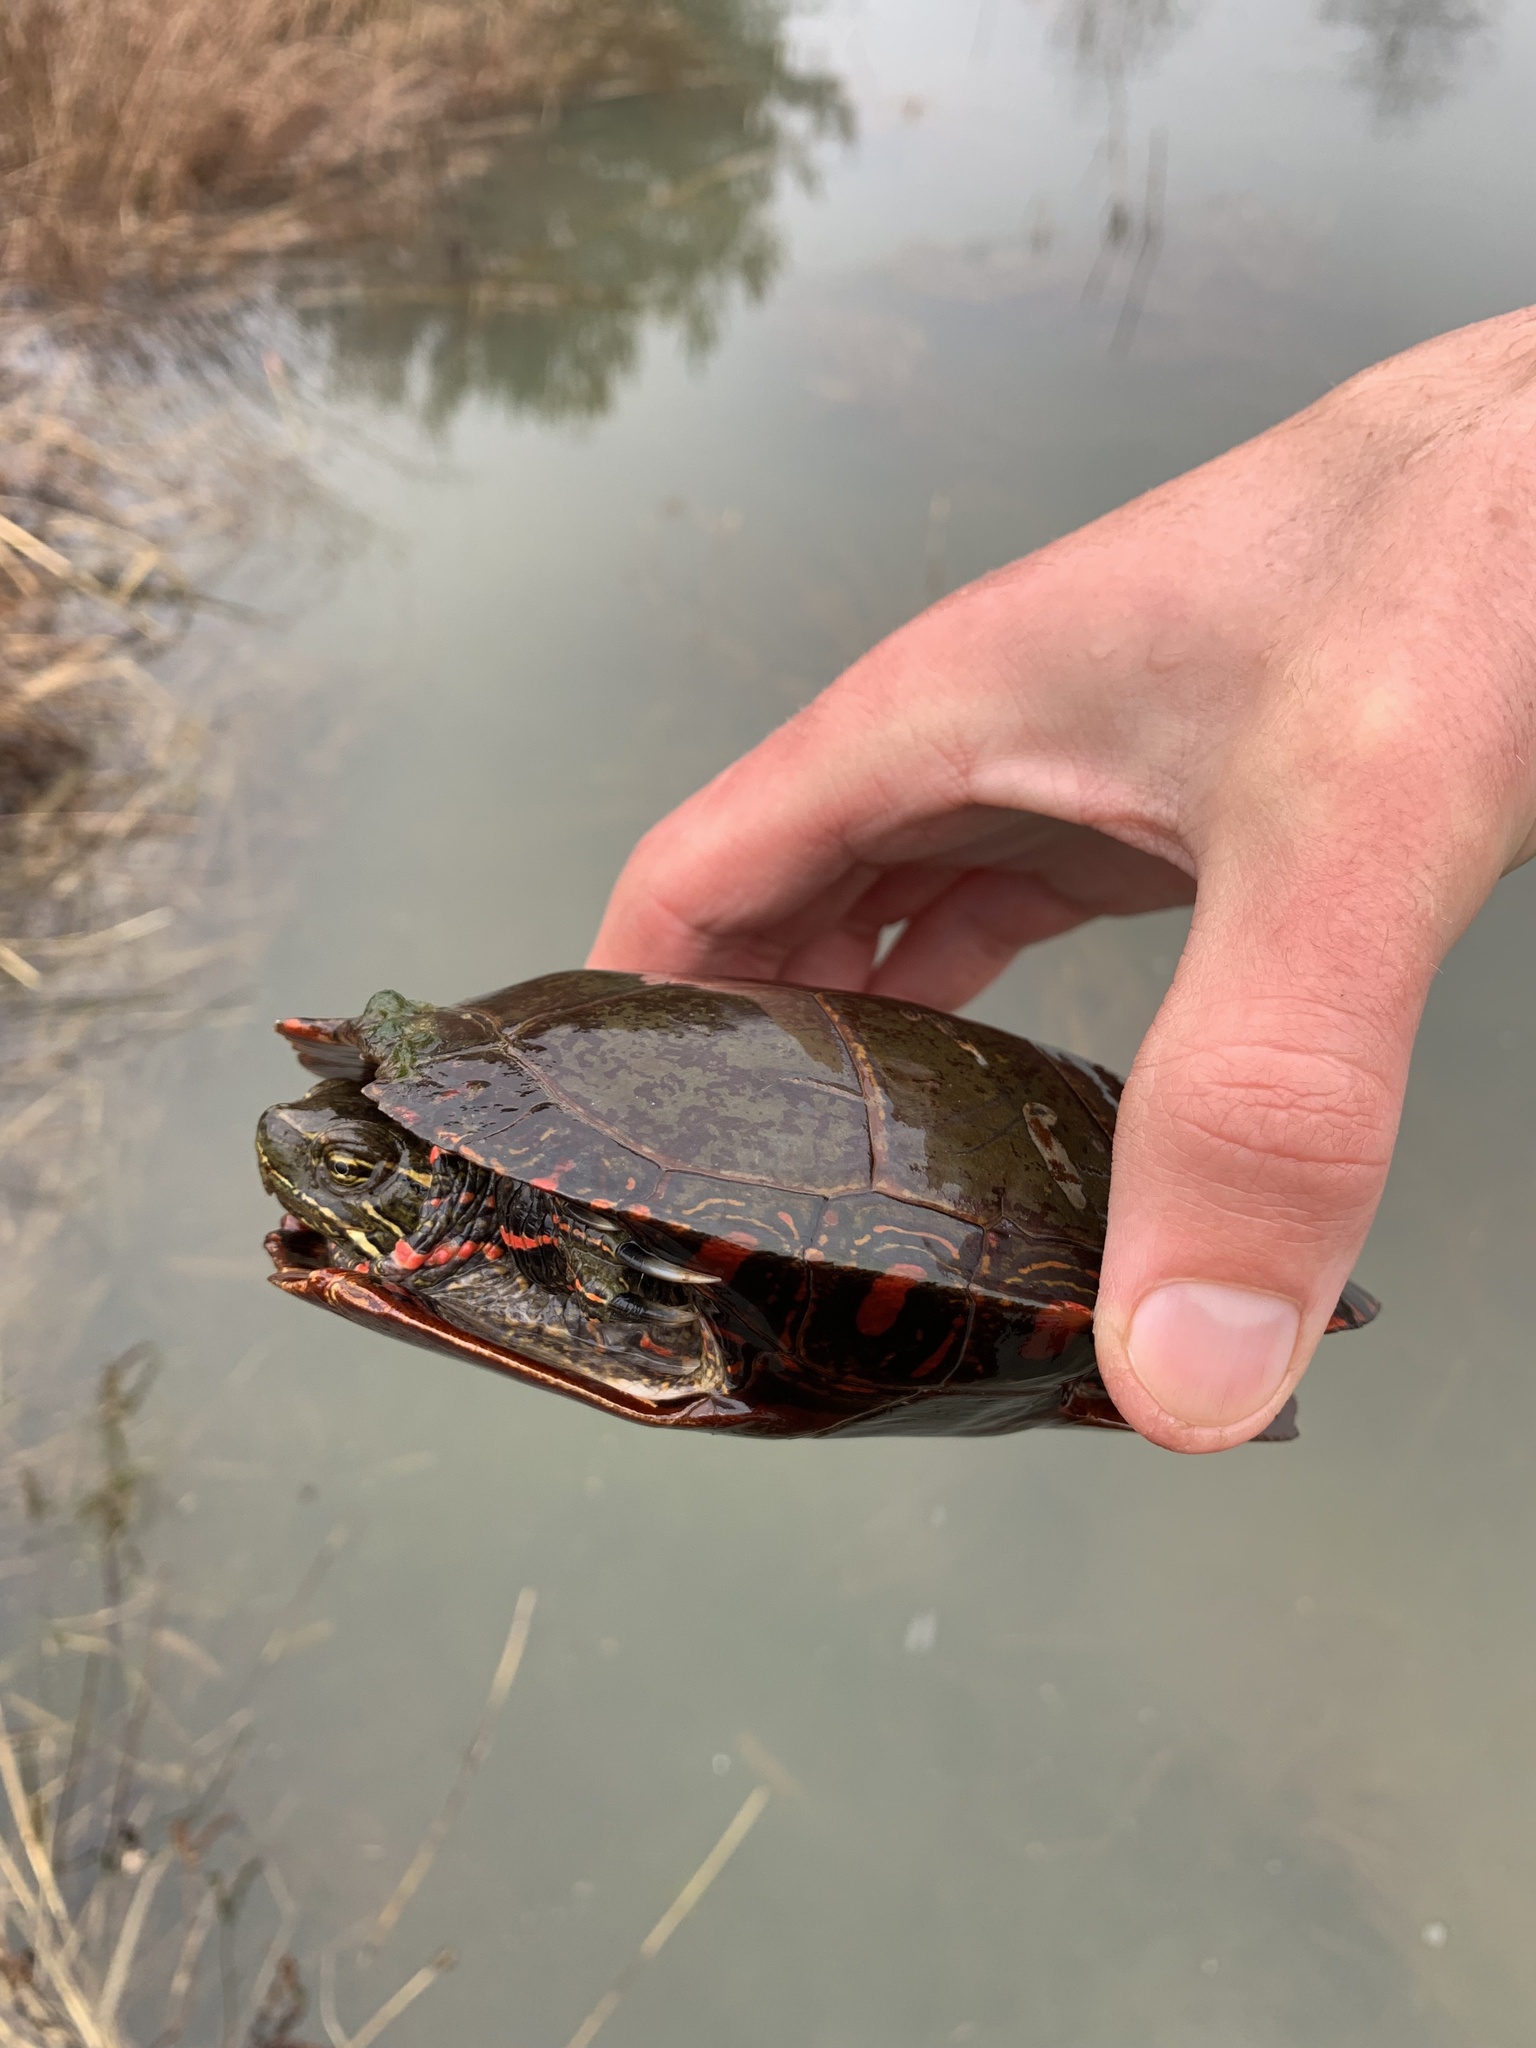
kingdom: Animalia
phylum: Chordata
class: Testudines
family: Emydidae
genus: Chrysemys
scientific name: Chrysemys picta
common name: Painted turtle
